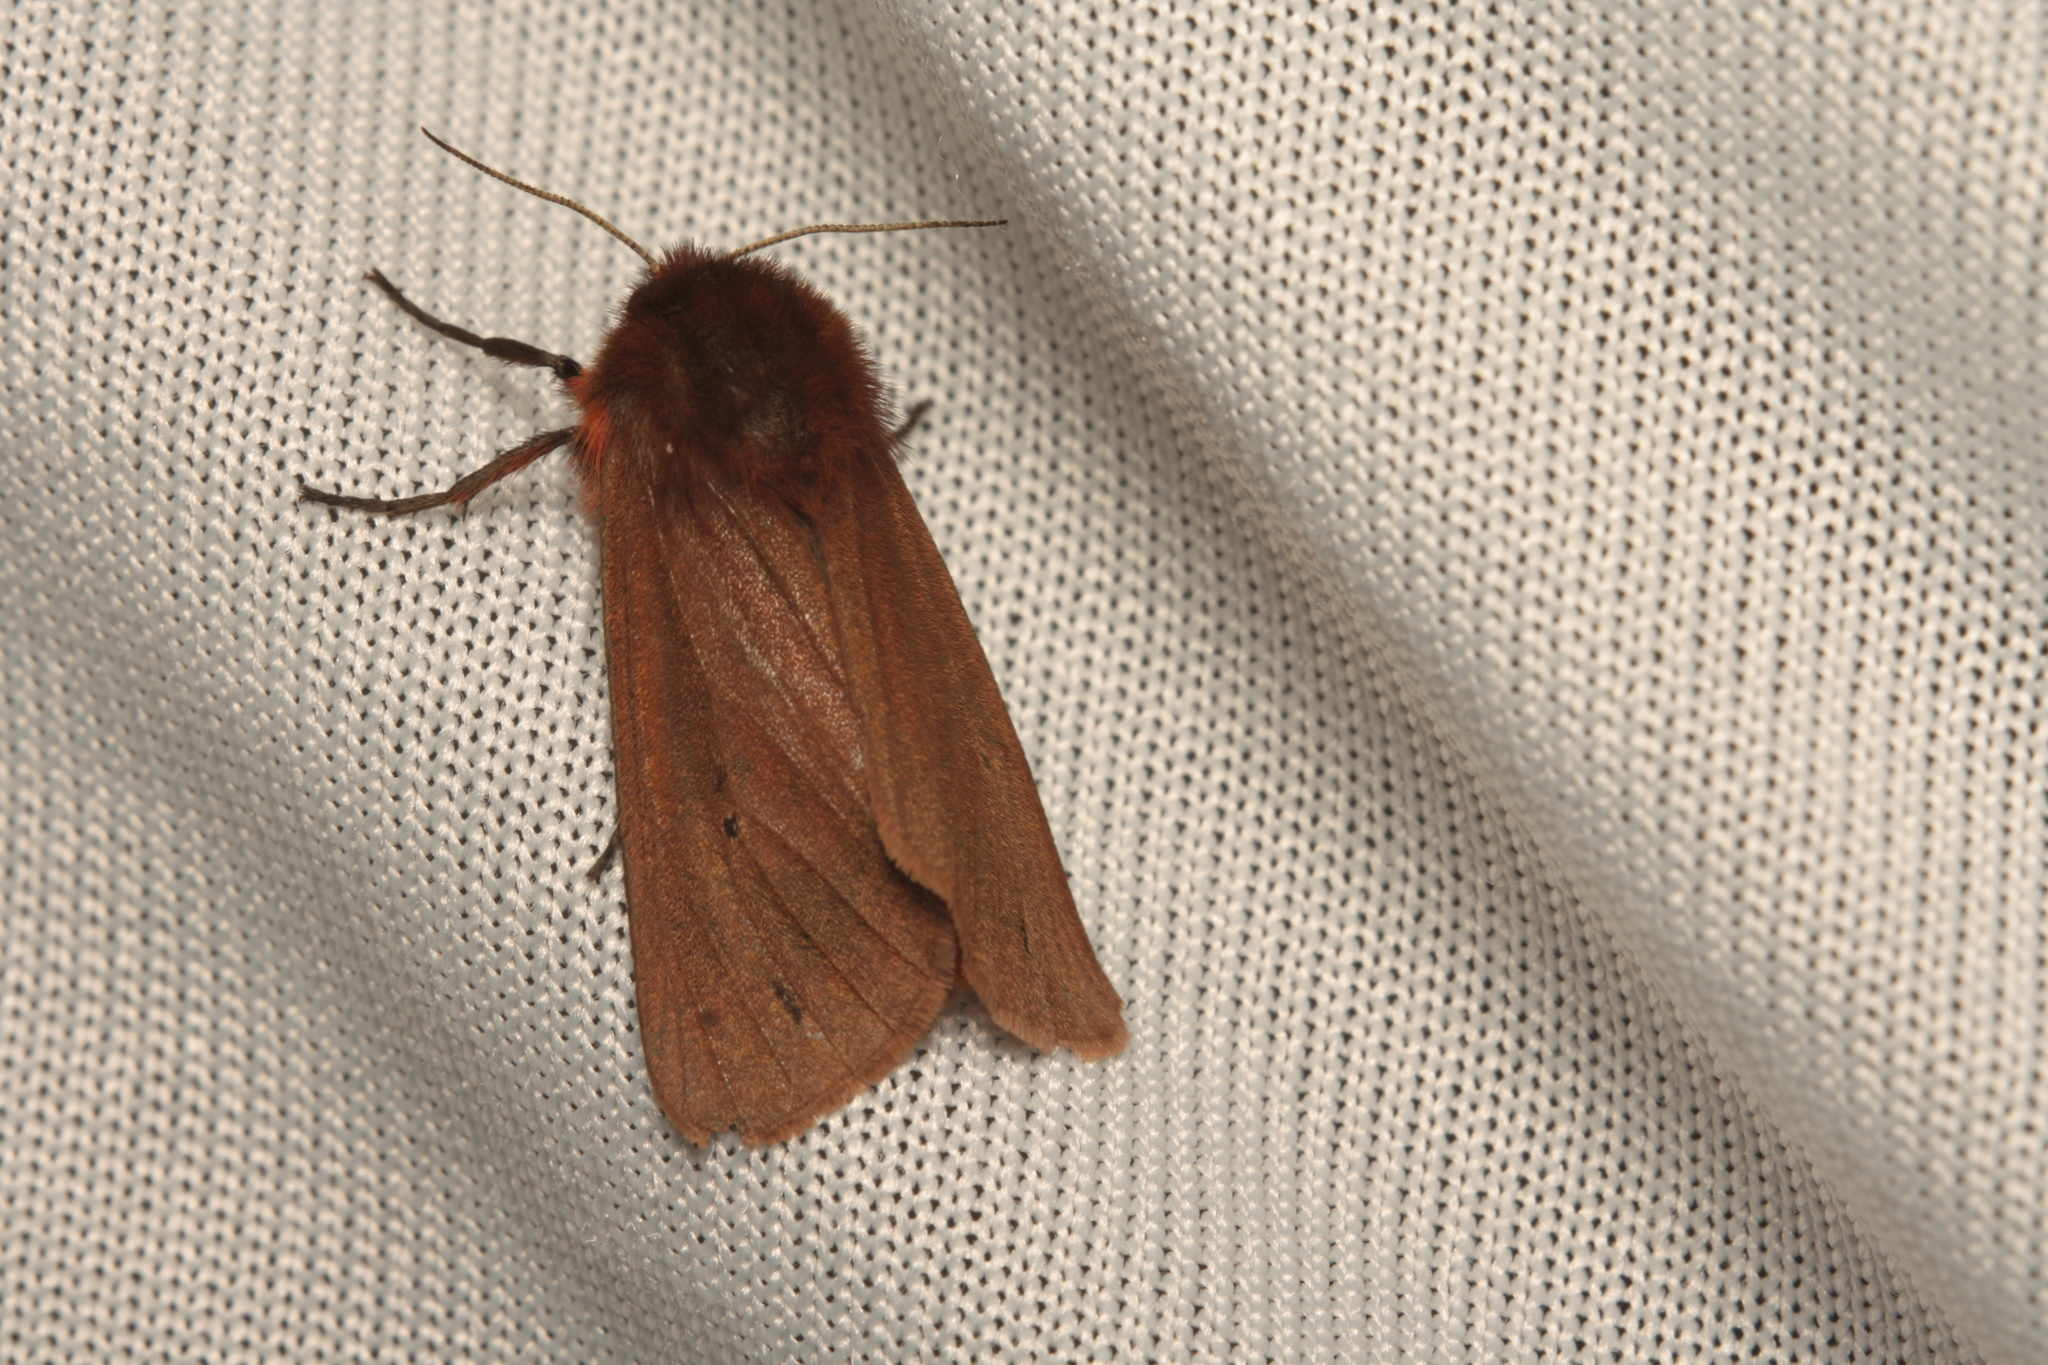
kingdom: Animalia
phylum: Arthropoda
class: Insecta
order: Lepidoptera
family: Erebidae
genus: Phragmatobia
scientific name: Phragmatobia fuliginosa
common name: Ruby tiger
